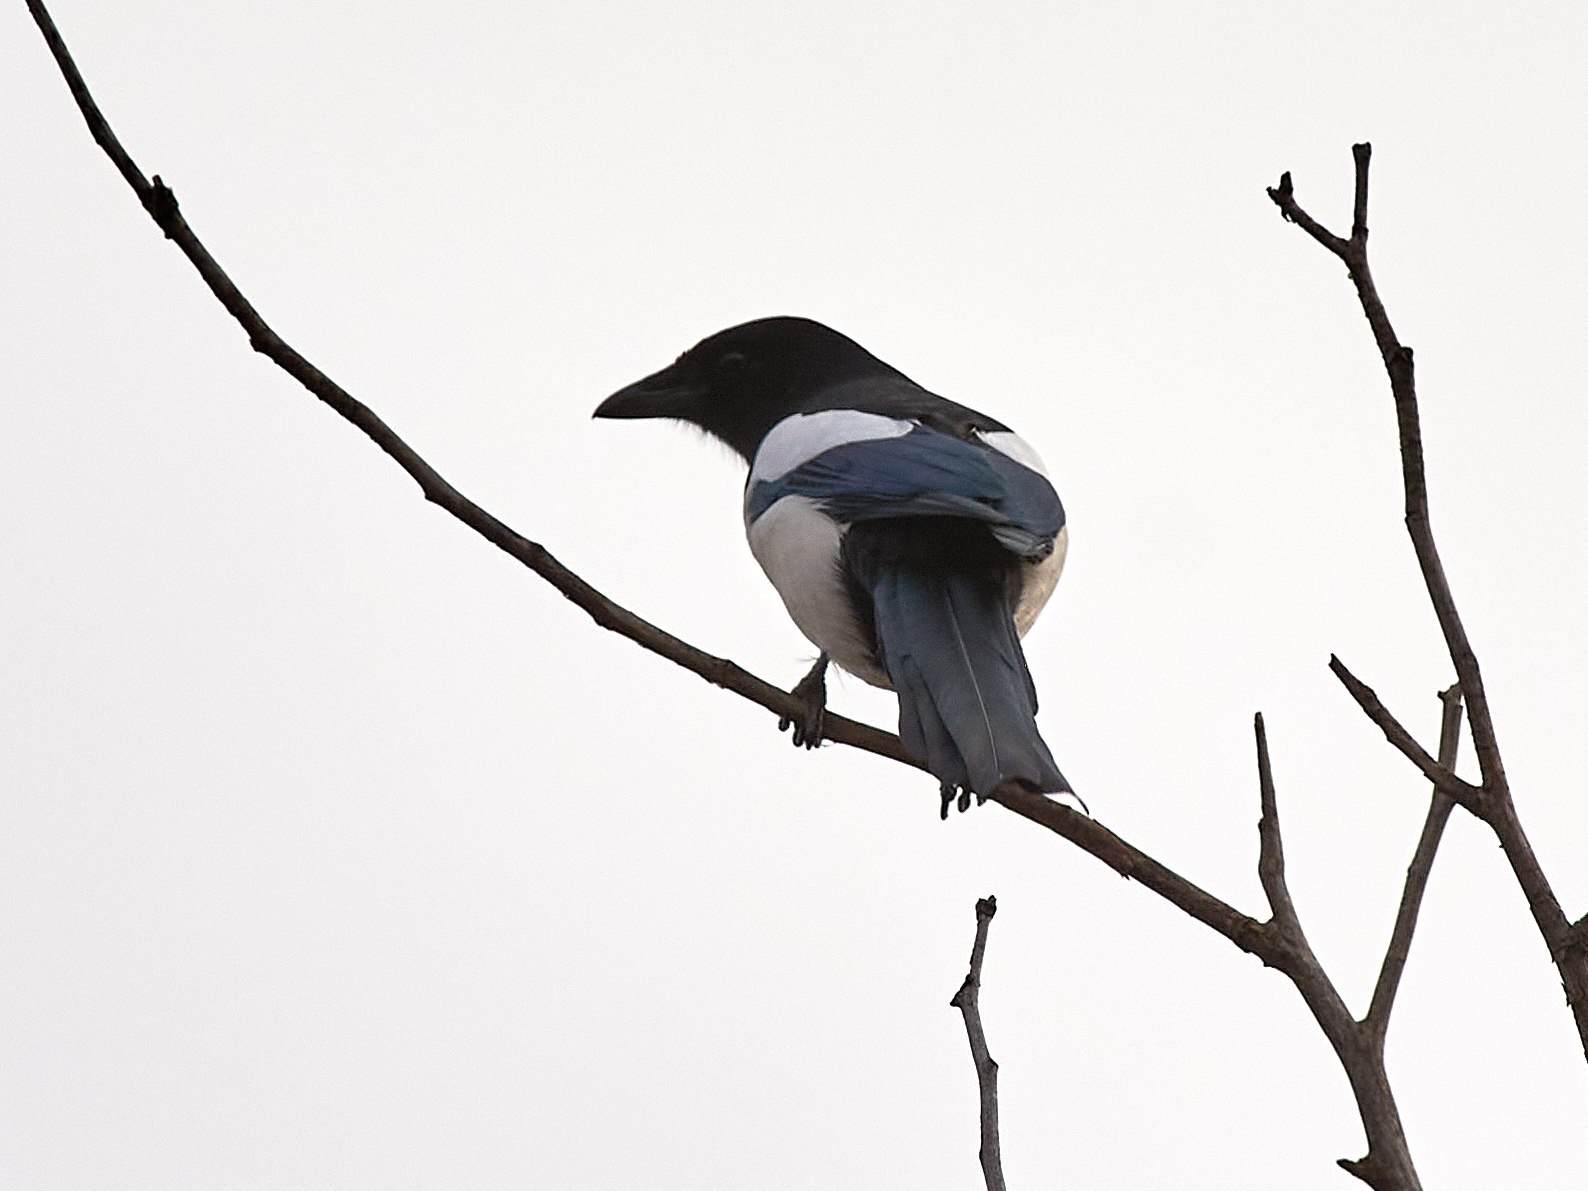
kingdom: Animalia
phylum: Chordata
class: Aves
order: Passeriformes
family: Corvidae
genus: Pica
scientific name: Pica pica
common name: Eurasian magpie
